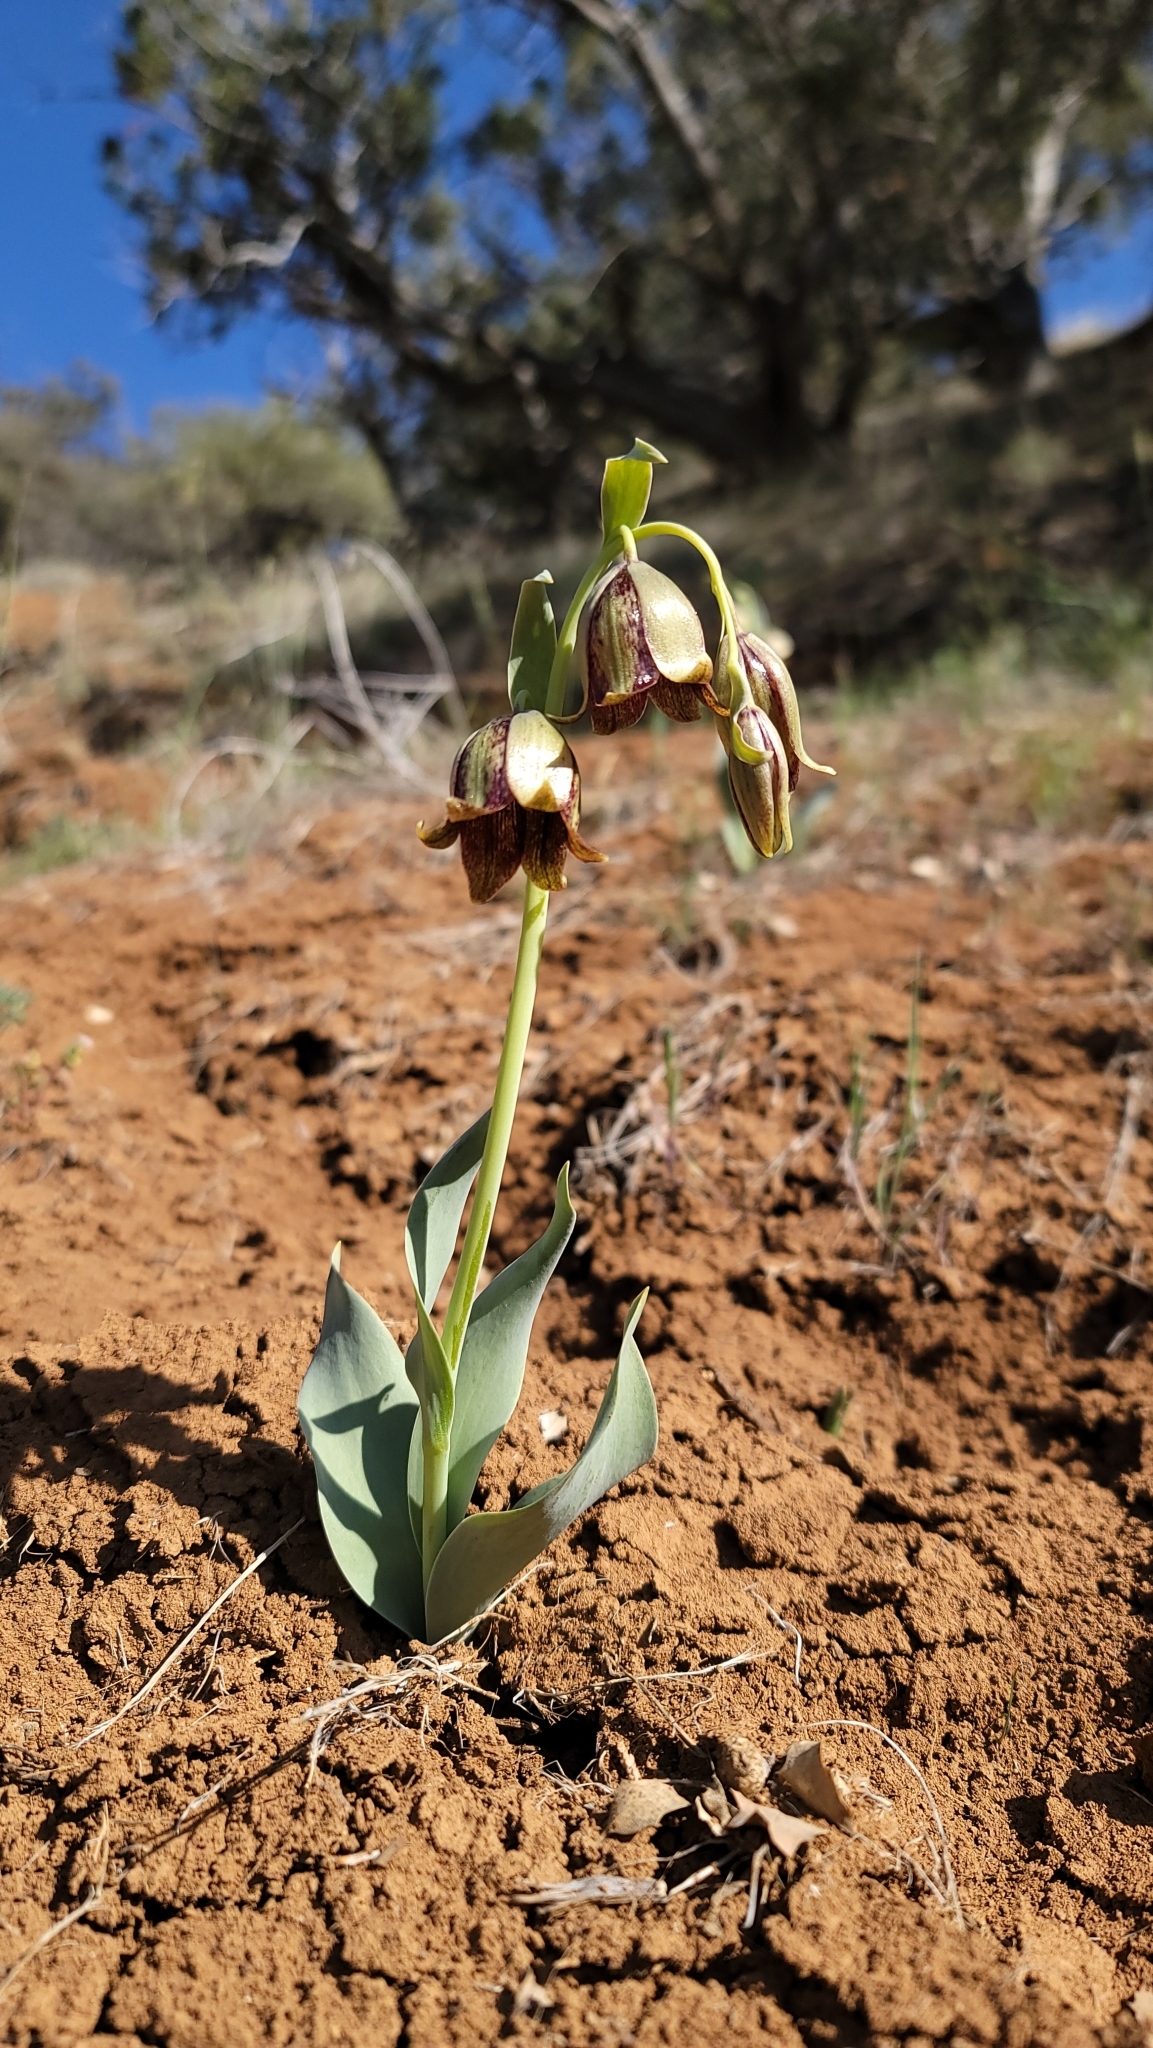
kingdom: Plantae
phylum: Tracheophyta
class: Liliopsida
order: Liliales
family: Liliaceae
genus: Fritillaria
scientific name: Fritillaria agrestis
